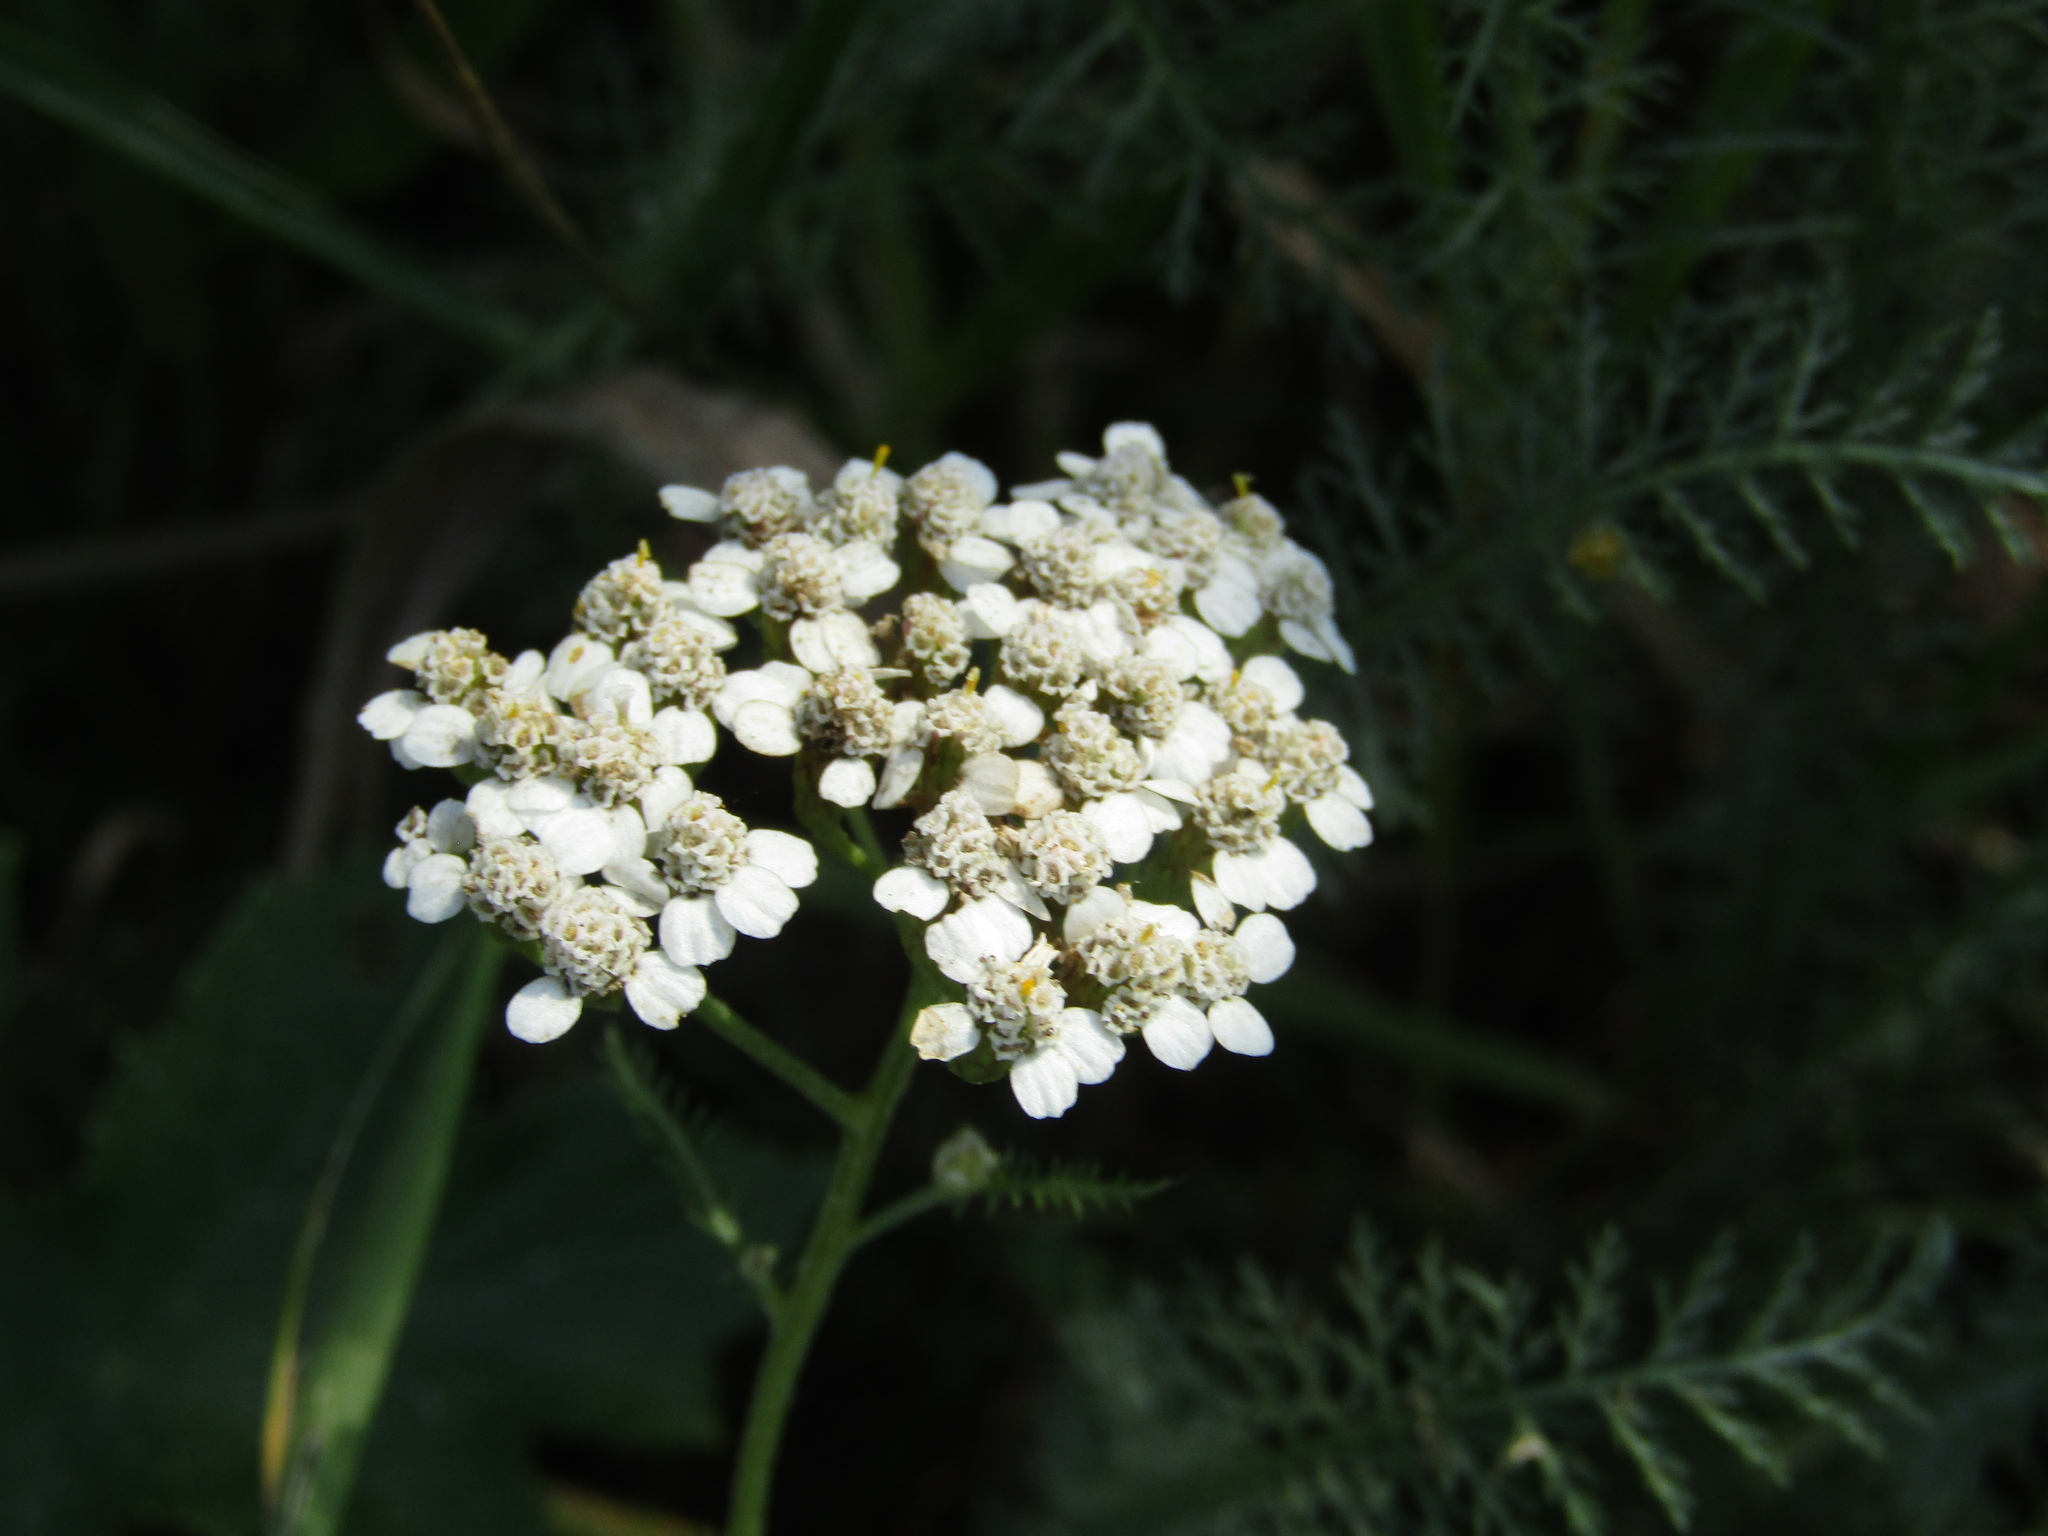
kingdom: Plantae
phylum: Tracheophyta
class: Magnoliopsida
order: Asterales
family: Asteraceae
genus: Achillea
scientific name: Achillea millefolium
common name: Yarrow
